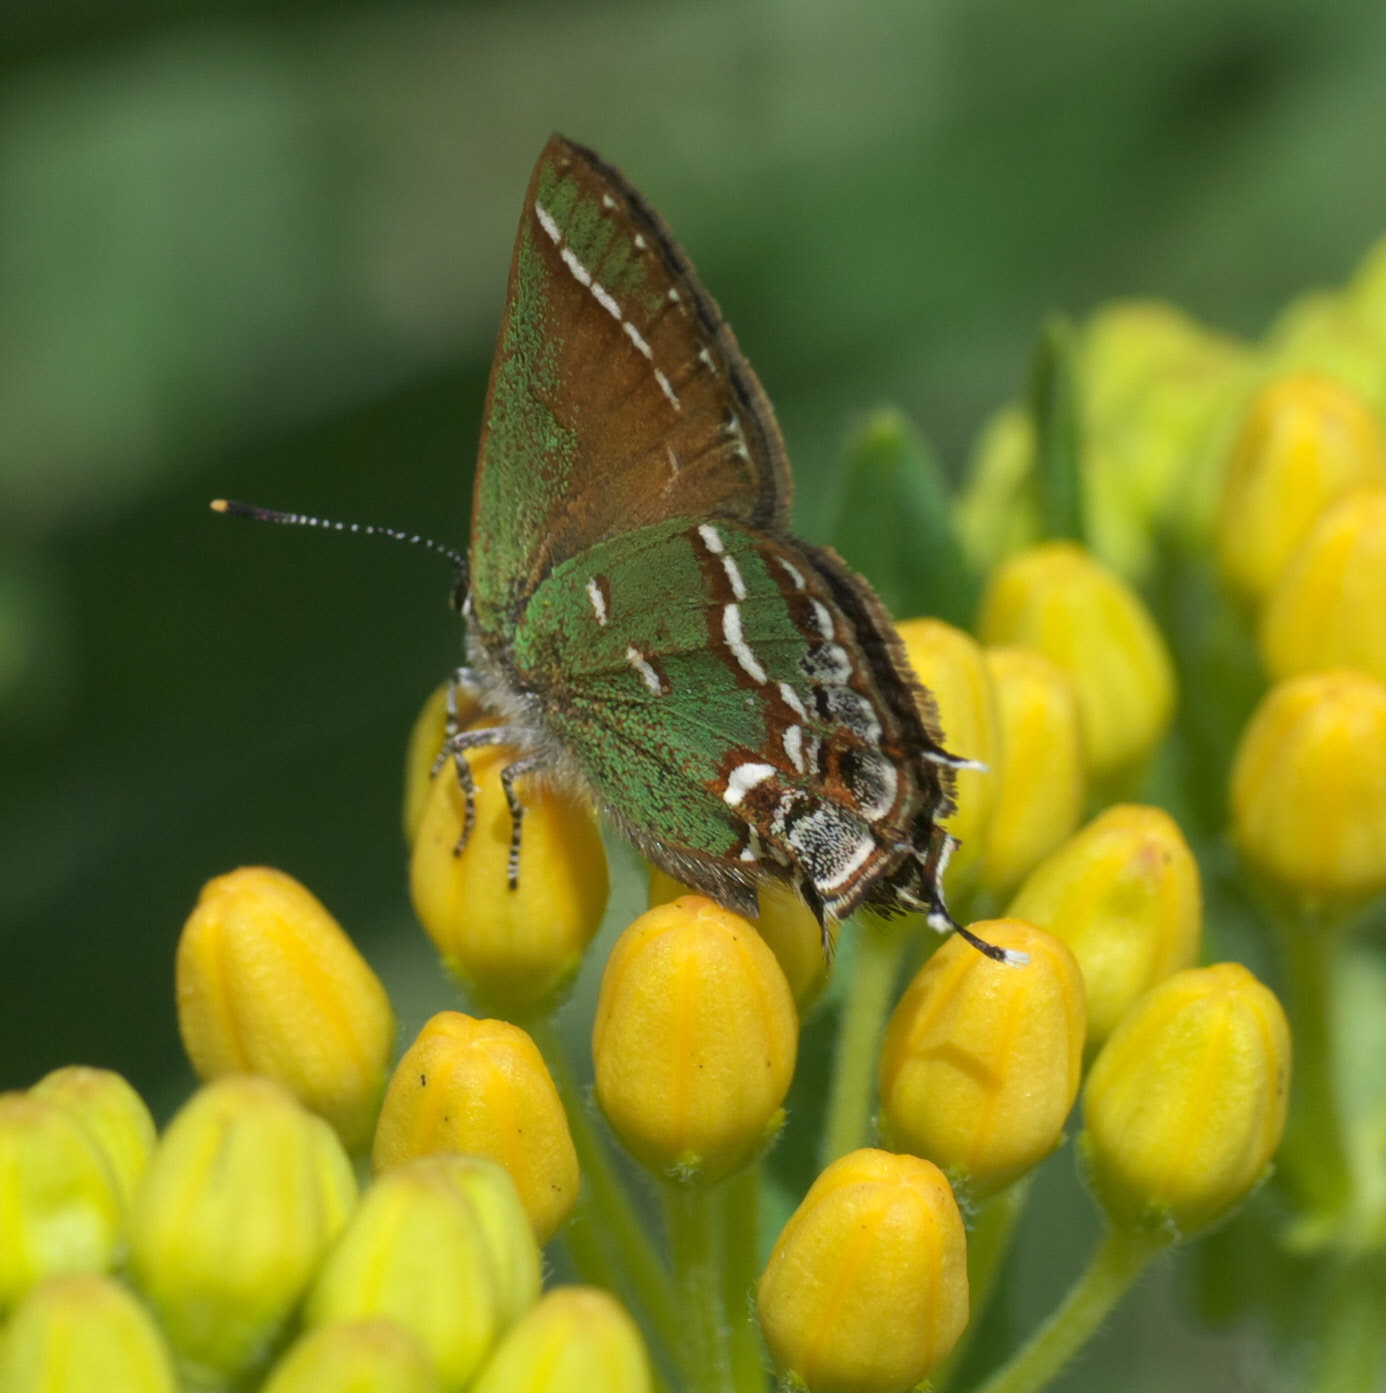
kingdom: Animalia
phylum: Arthropoda
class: Insecta
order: Lepidoptera
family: Lycaenidae
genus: Mitoura
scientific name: Mitoura gryneus
